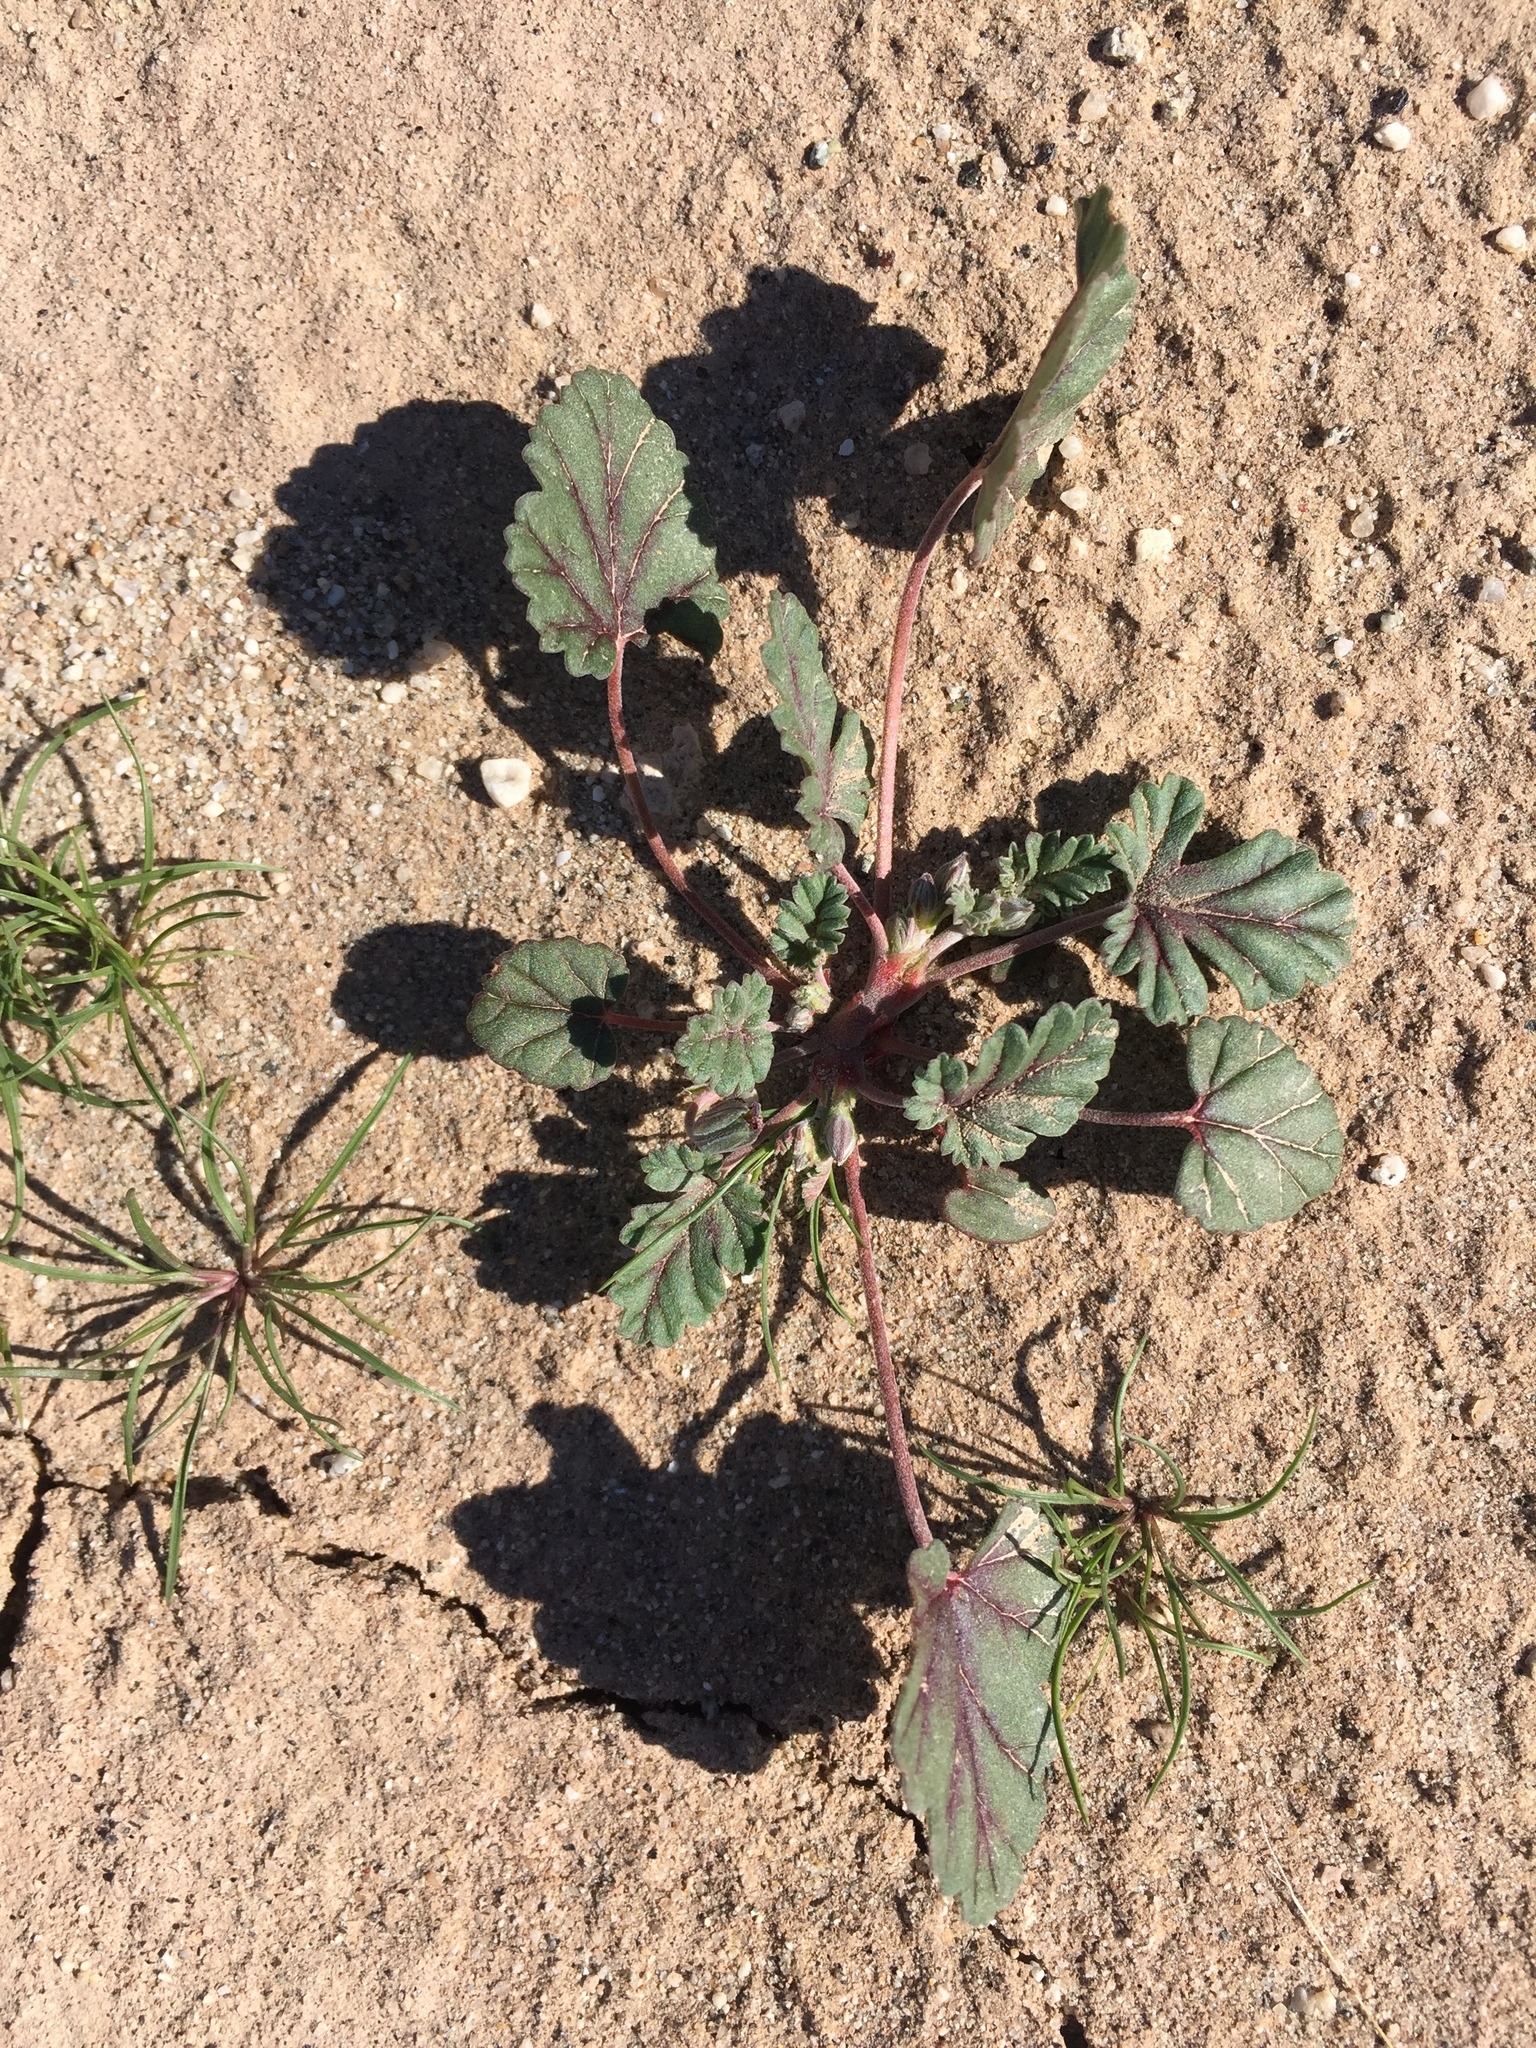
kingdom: Plantae
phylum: Tracheophyta
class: Magnoliopsida
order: Geraniales
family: Geraniaceae
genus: Erodium
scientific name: Erodium texanum
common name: Texas stork's-bill
